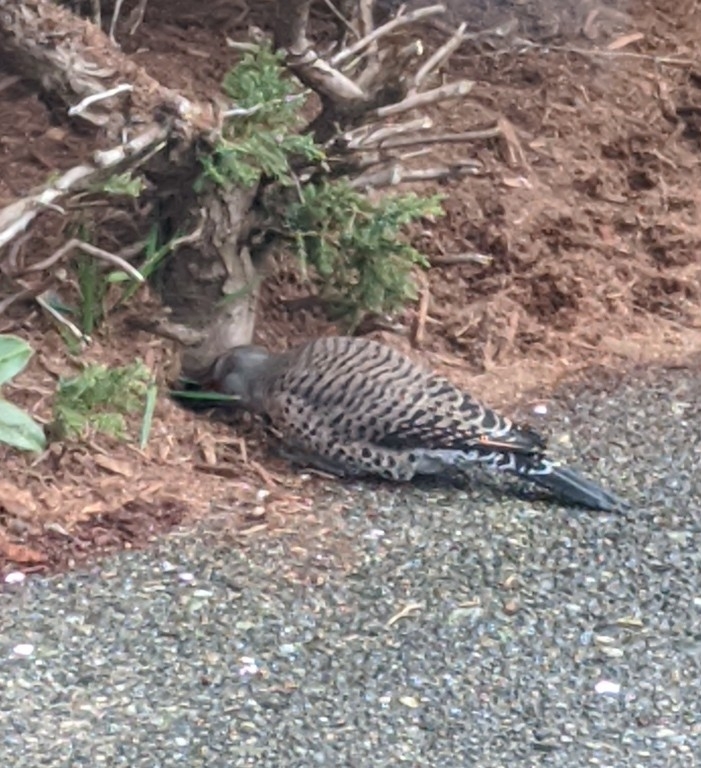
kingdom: Animalia
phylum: Chordata
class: Aves
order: Piciformes
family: Picidae
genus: Colaptes
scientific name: Colaptes auratus
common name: Northern flicker
